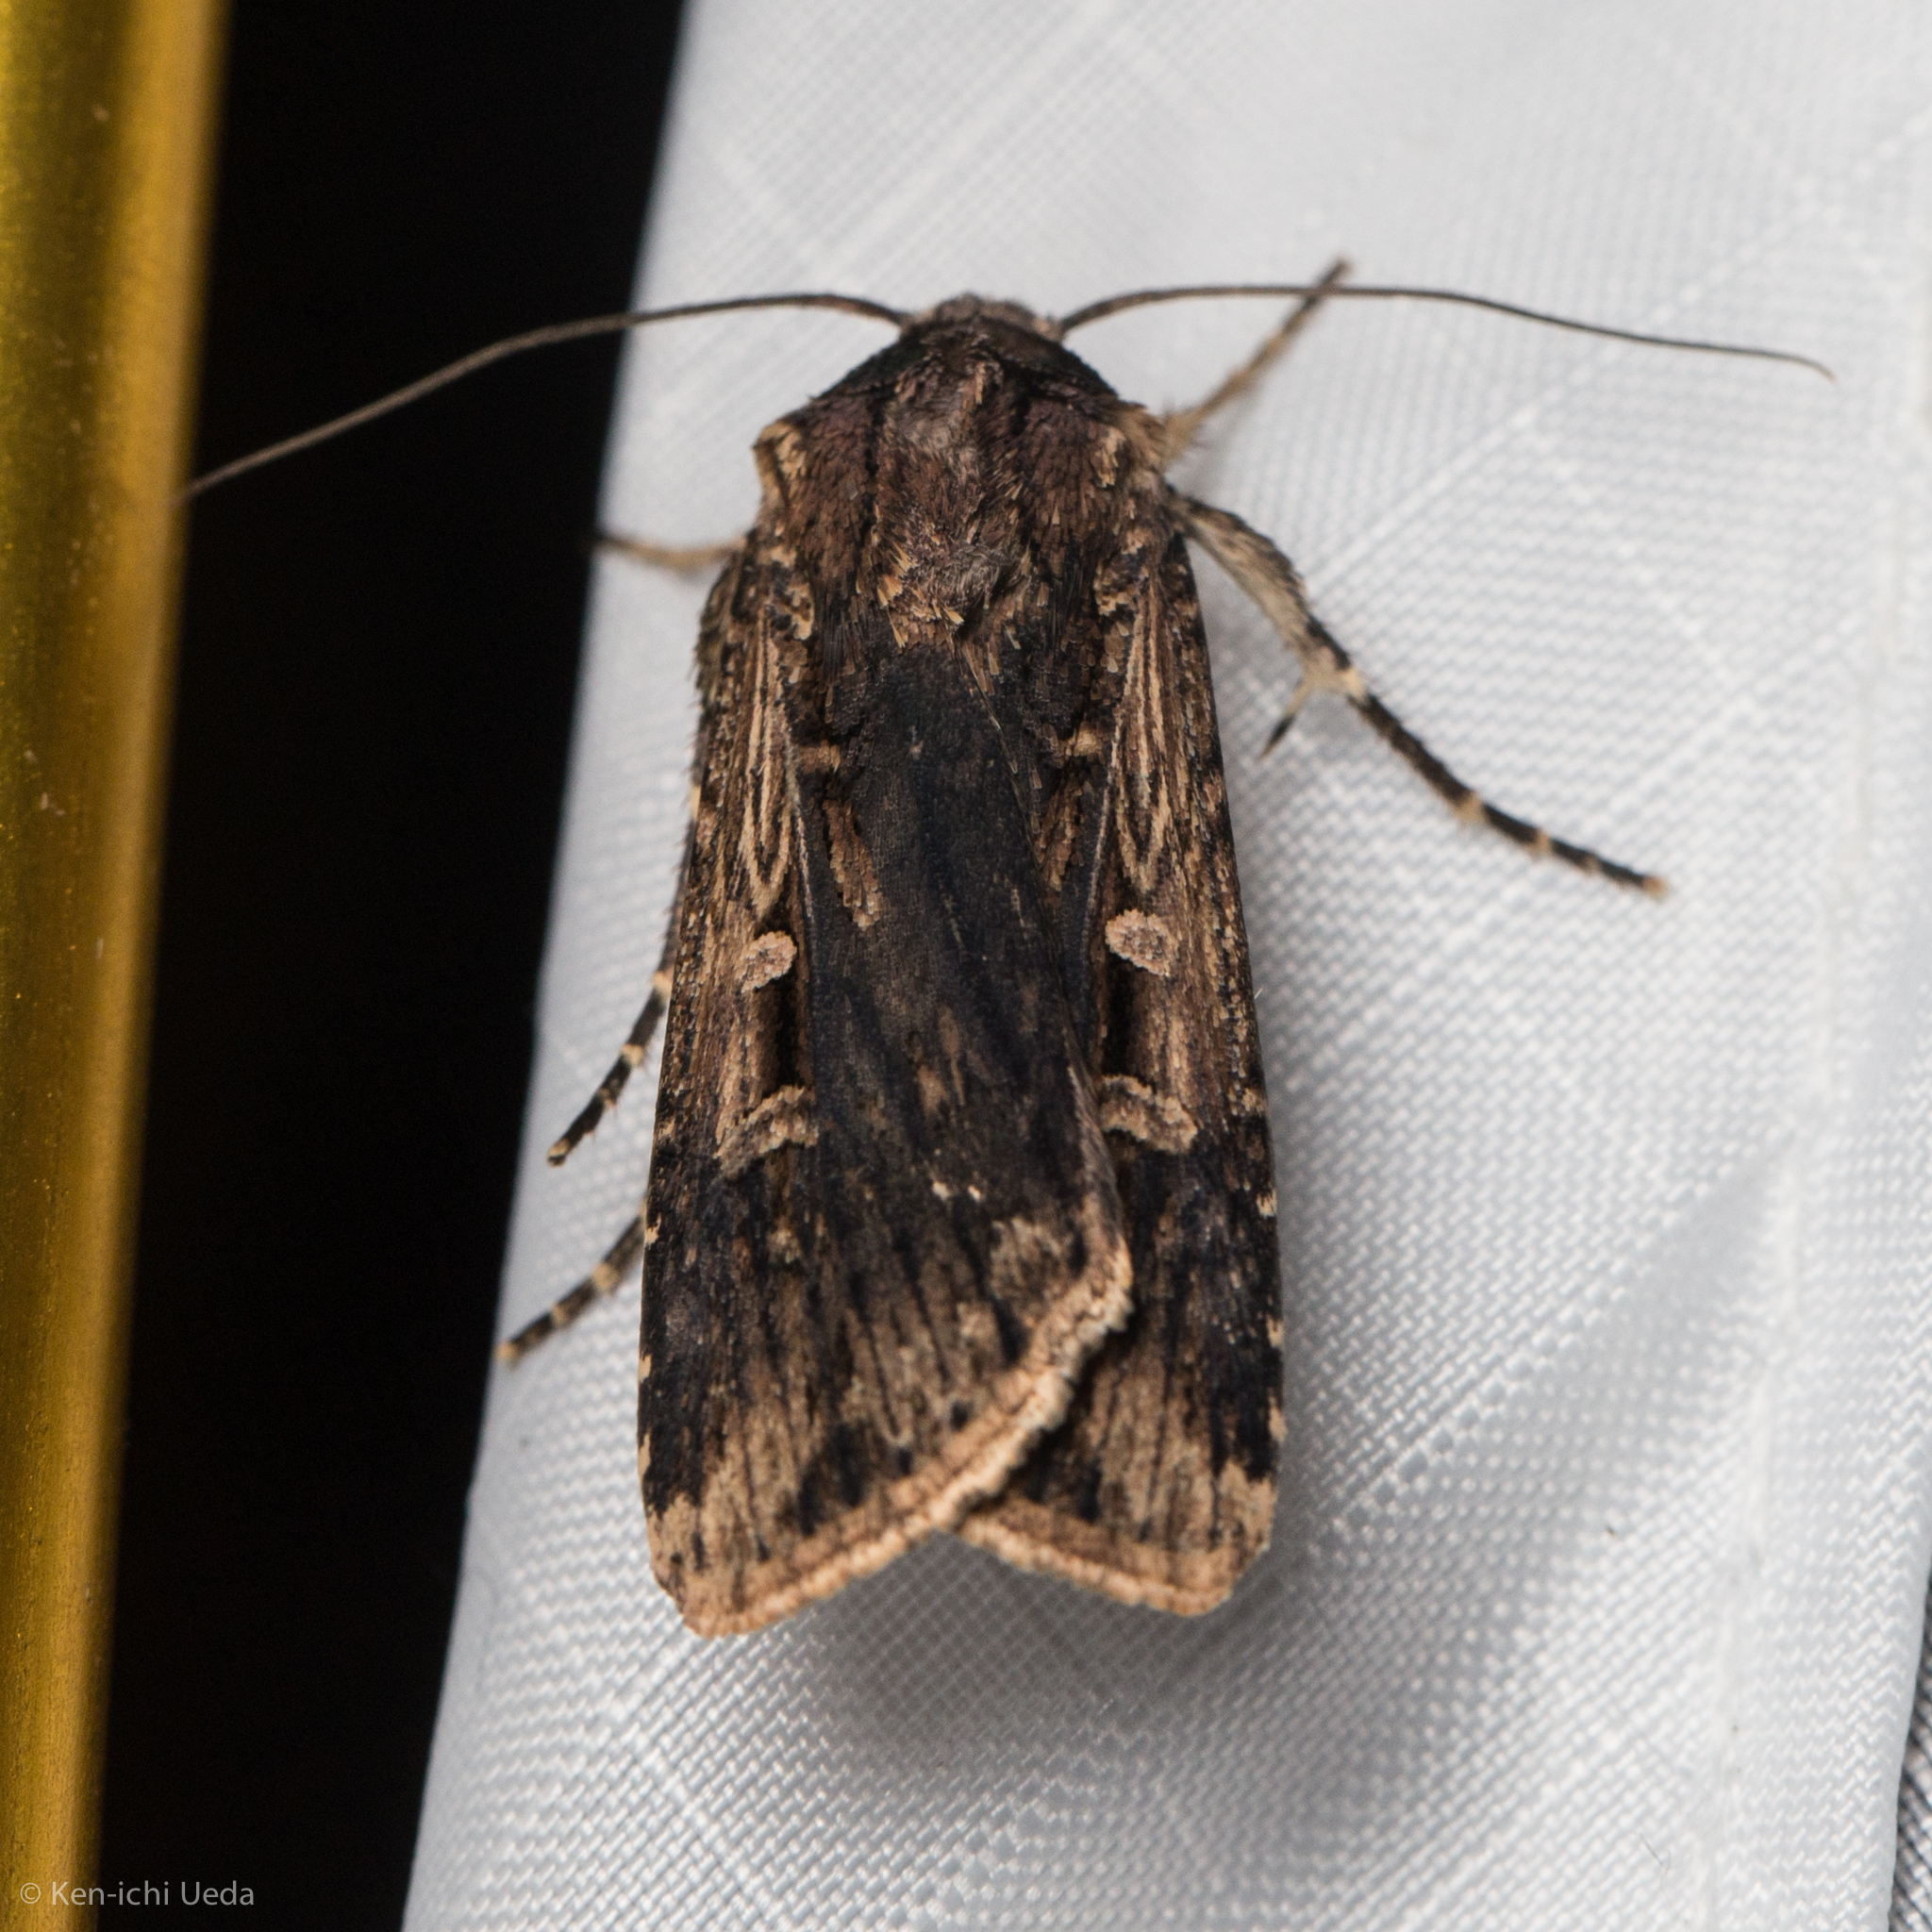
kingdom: Animalia
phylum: Arthropoda
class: Insecta
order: Lepidoptera
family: Noctuidae
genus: Feltia
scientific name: Feltia subterranea
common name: Granulate cutworm
